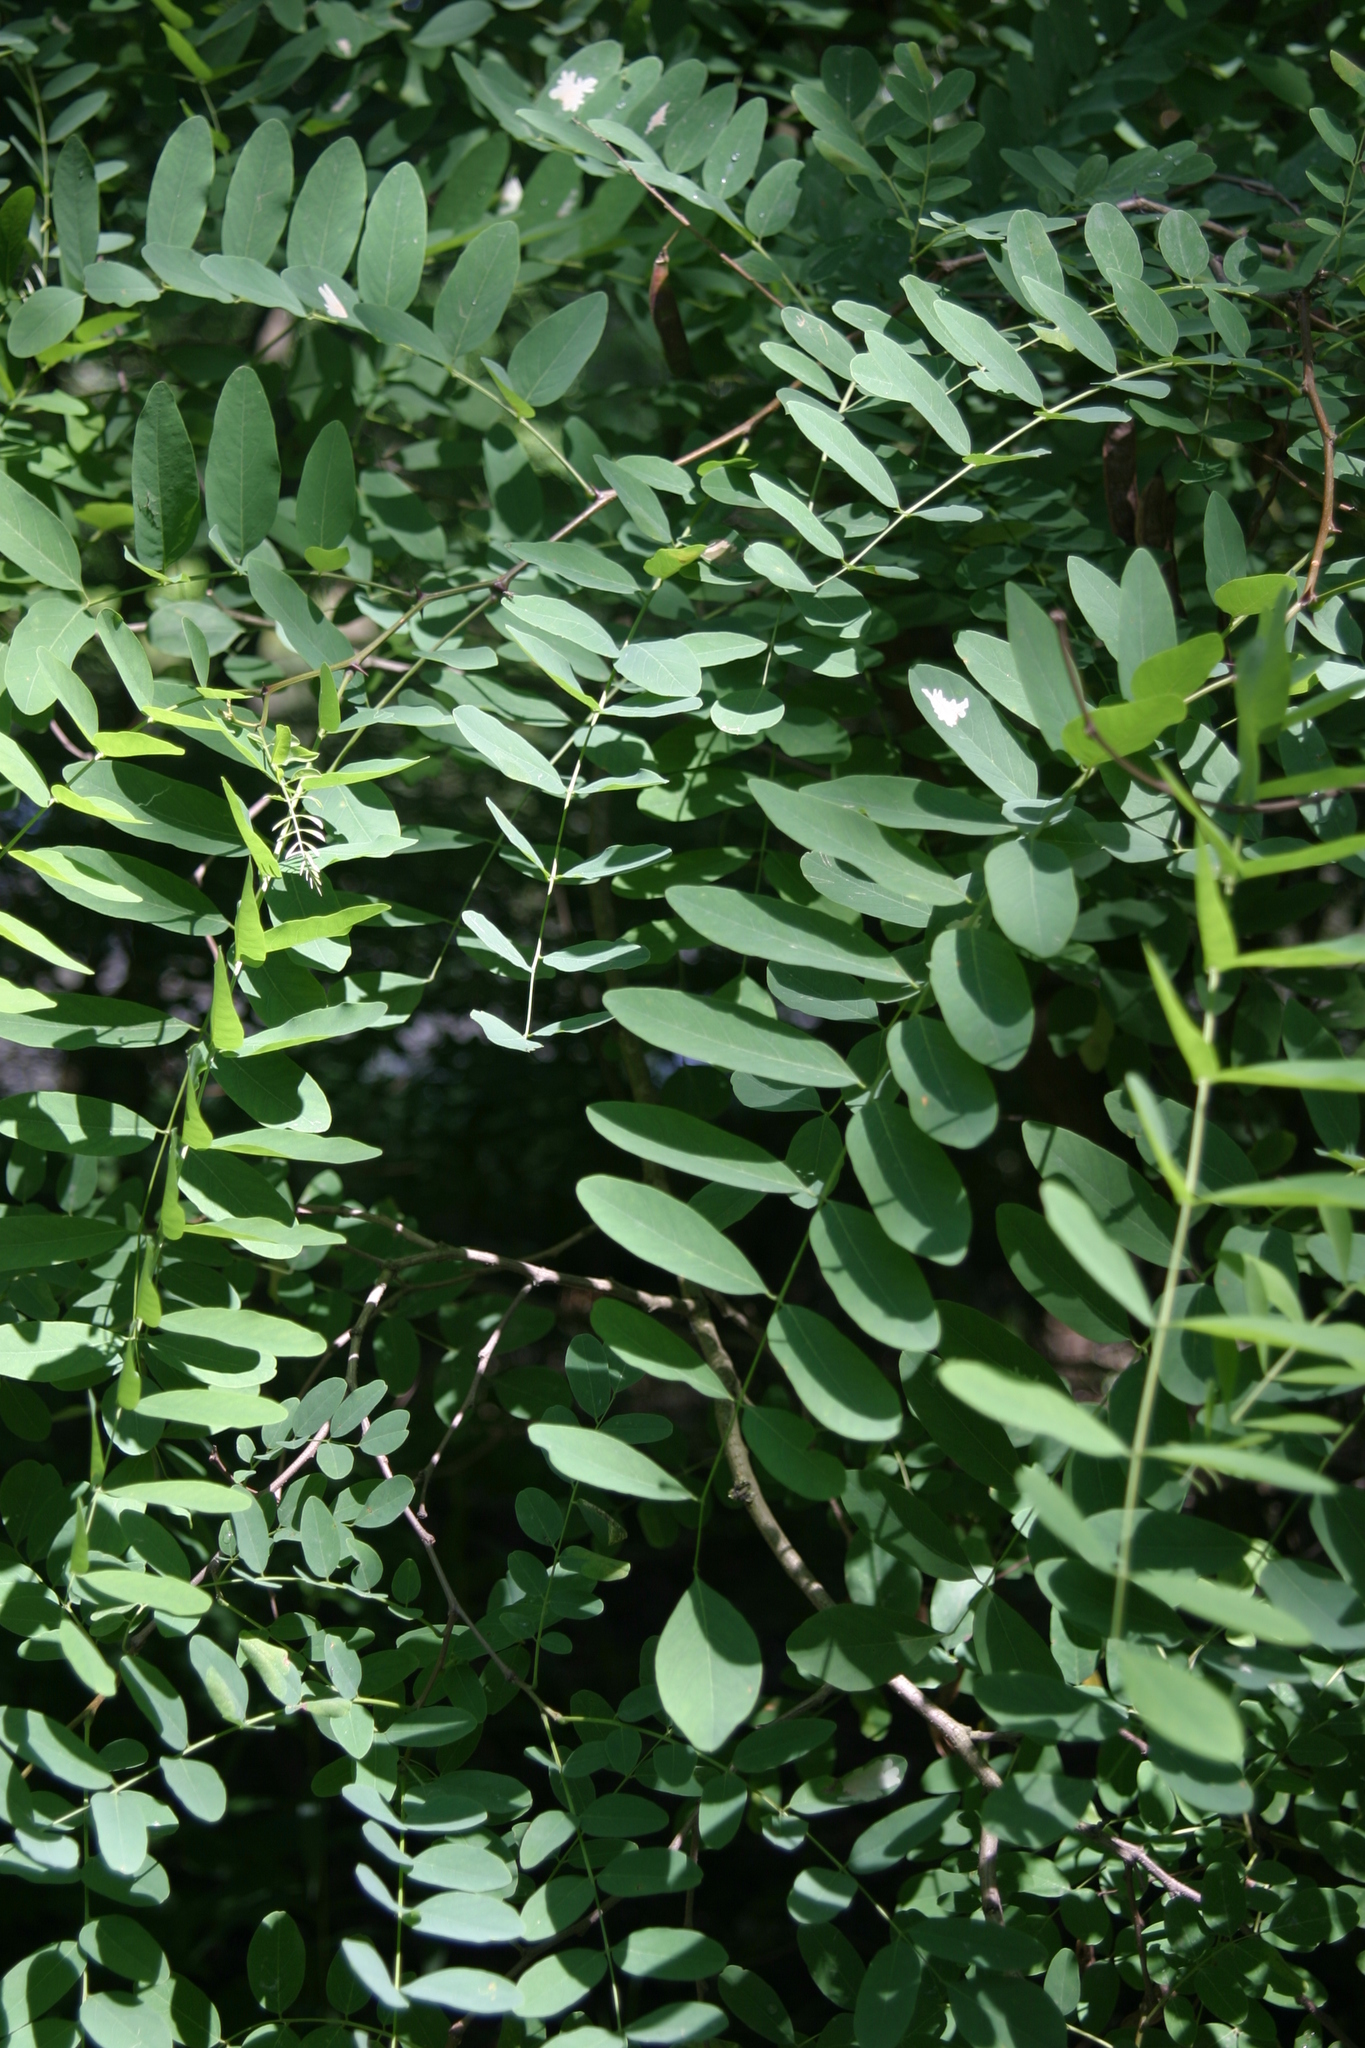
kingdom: Plantae
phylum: Tracheophyta
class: Magnoliopsida
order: Fabales
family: Fabaceae
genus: Robinia
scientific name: Robinia pseudoacacia
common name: Black locust
